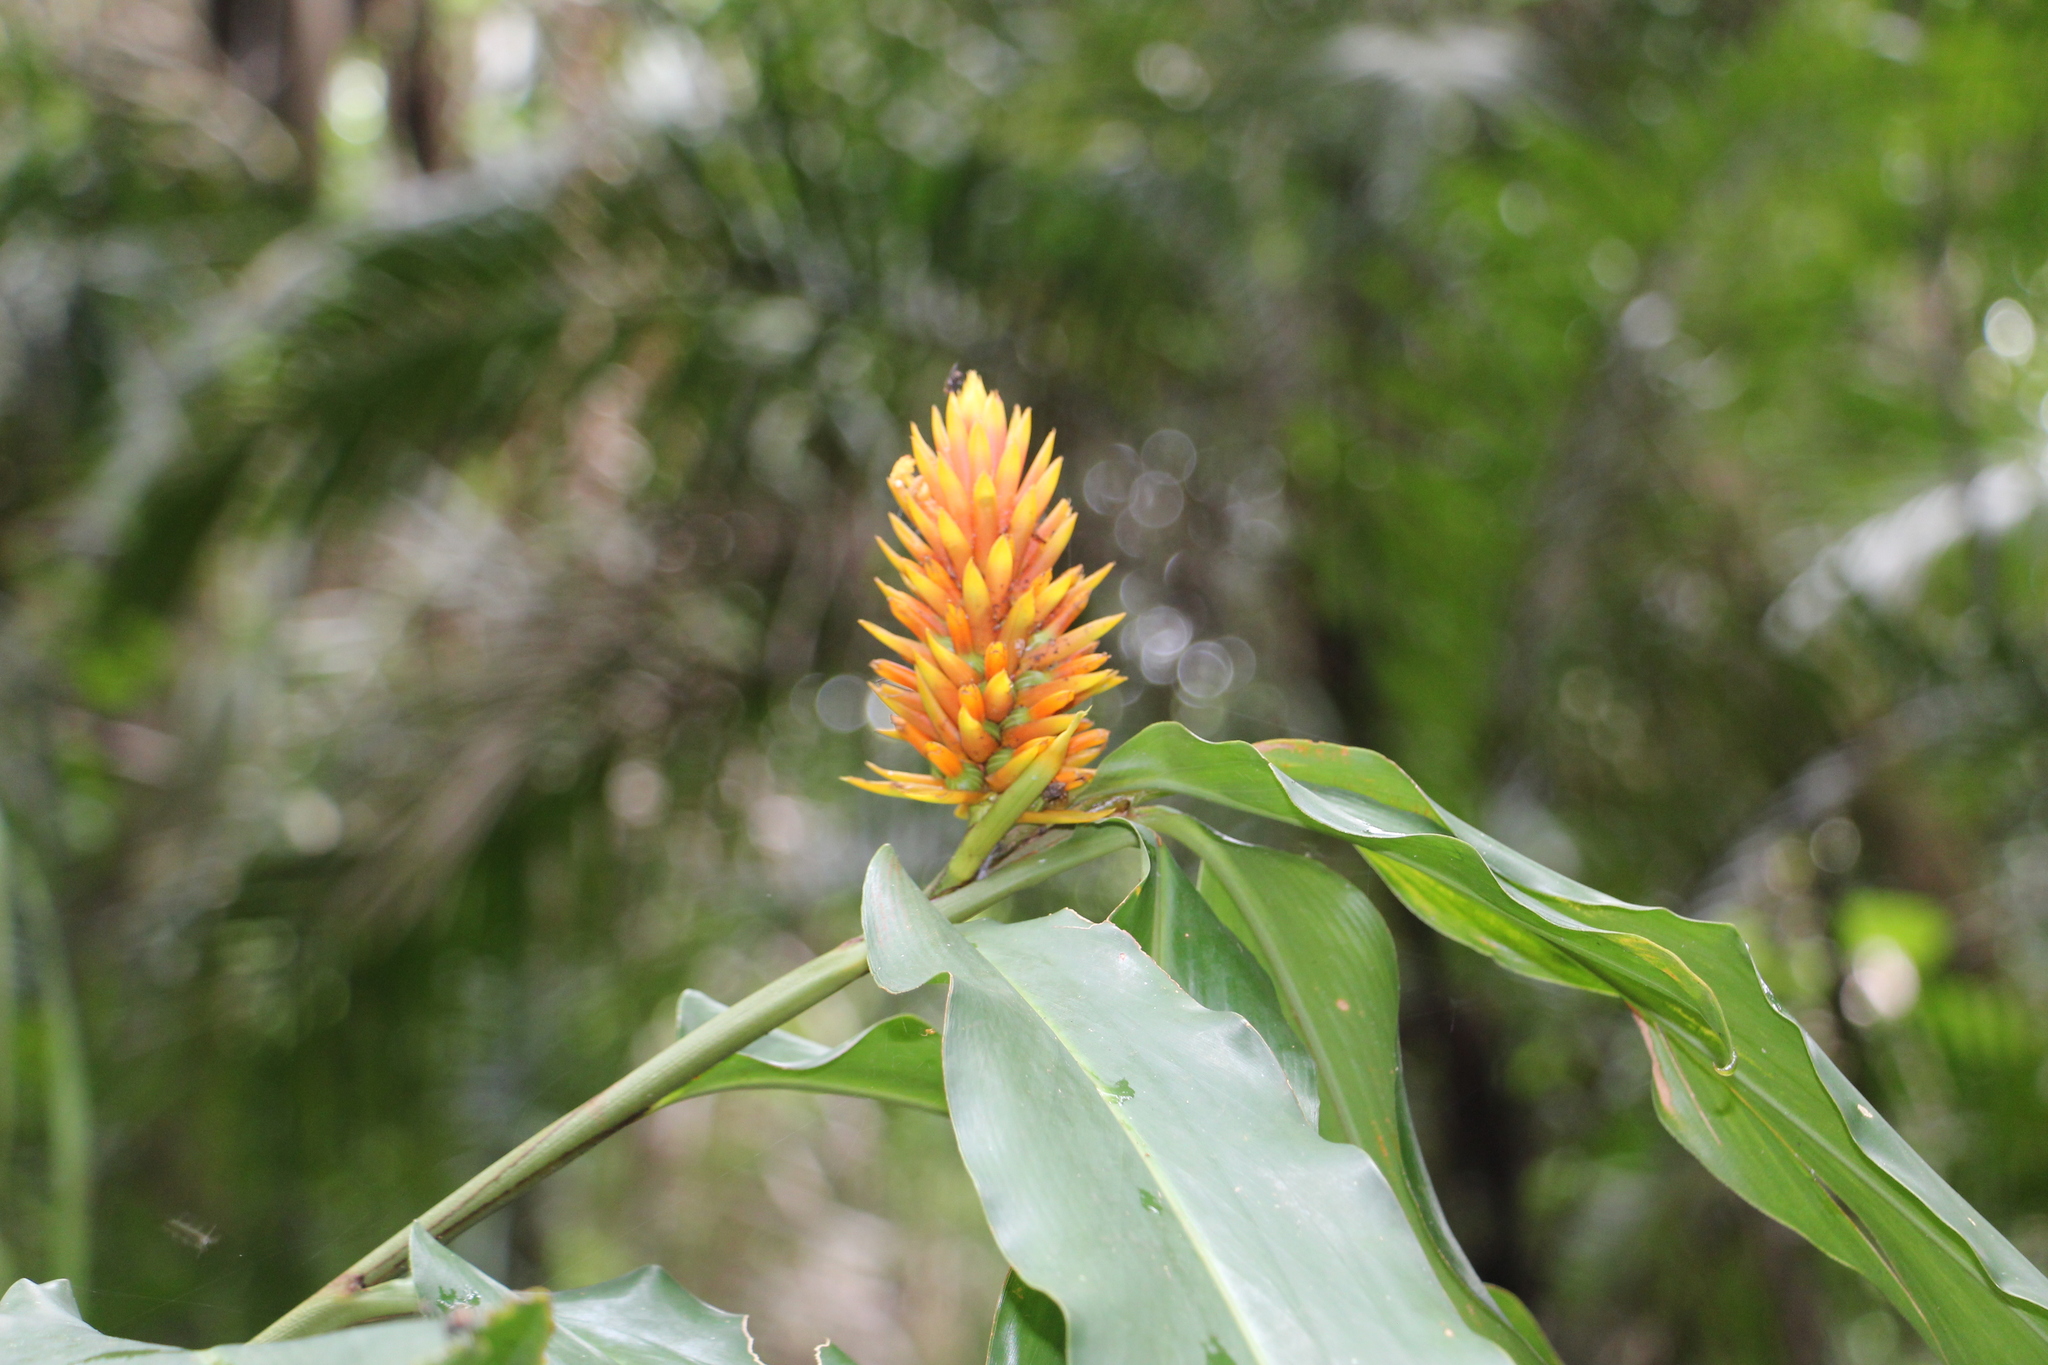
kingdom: Plantae
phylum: Tracheophyta
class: Liliopsida
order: Zingiberales
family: Zingiberaceae
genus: Renealmia
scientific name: Renealmia cernua
